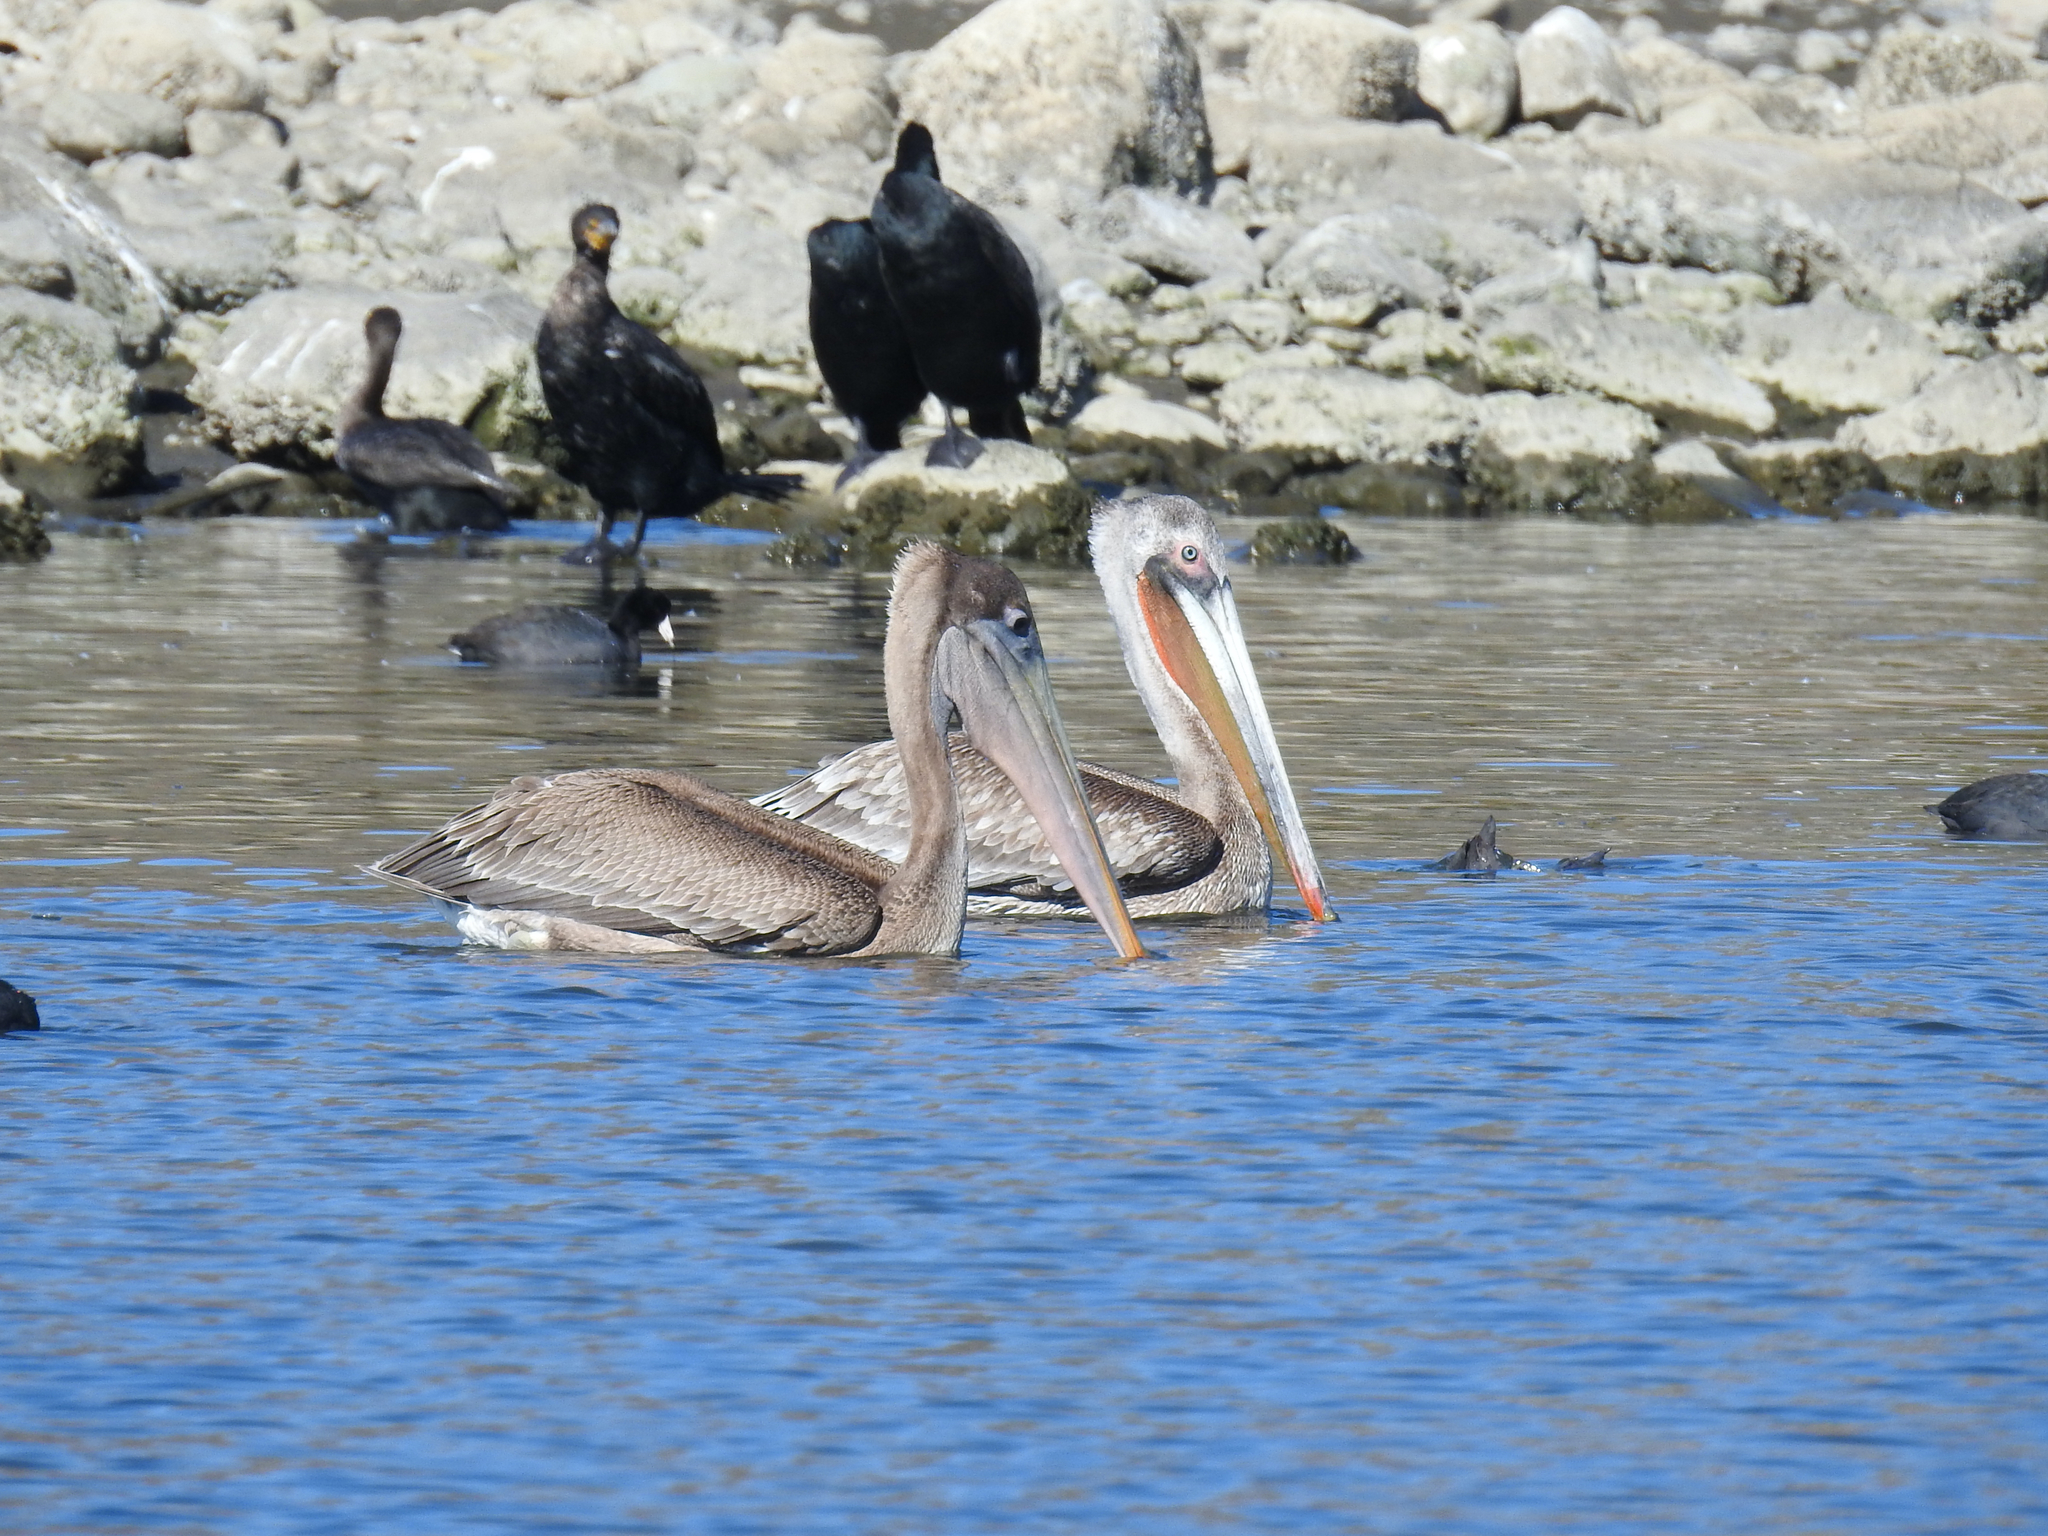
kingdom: Animalia
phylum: Chordata
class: Aves
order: Pelecaniformes
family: Pelecanidae
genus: Pelecanus
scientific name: Pelecanus occidentalis
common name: Brown pelican
